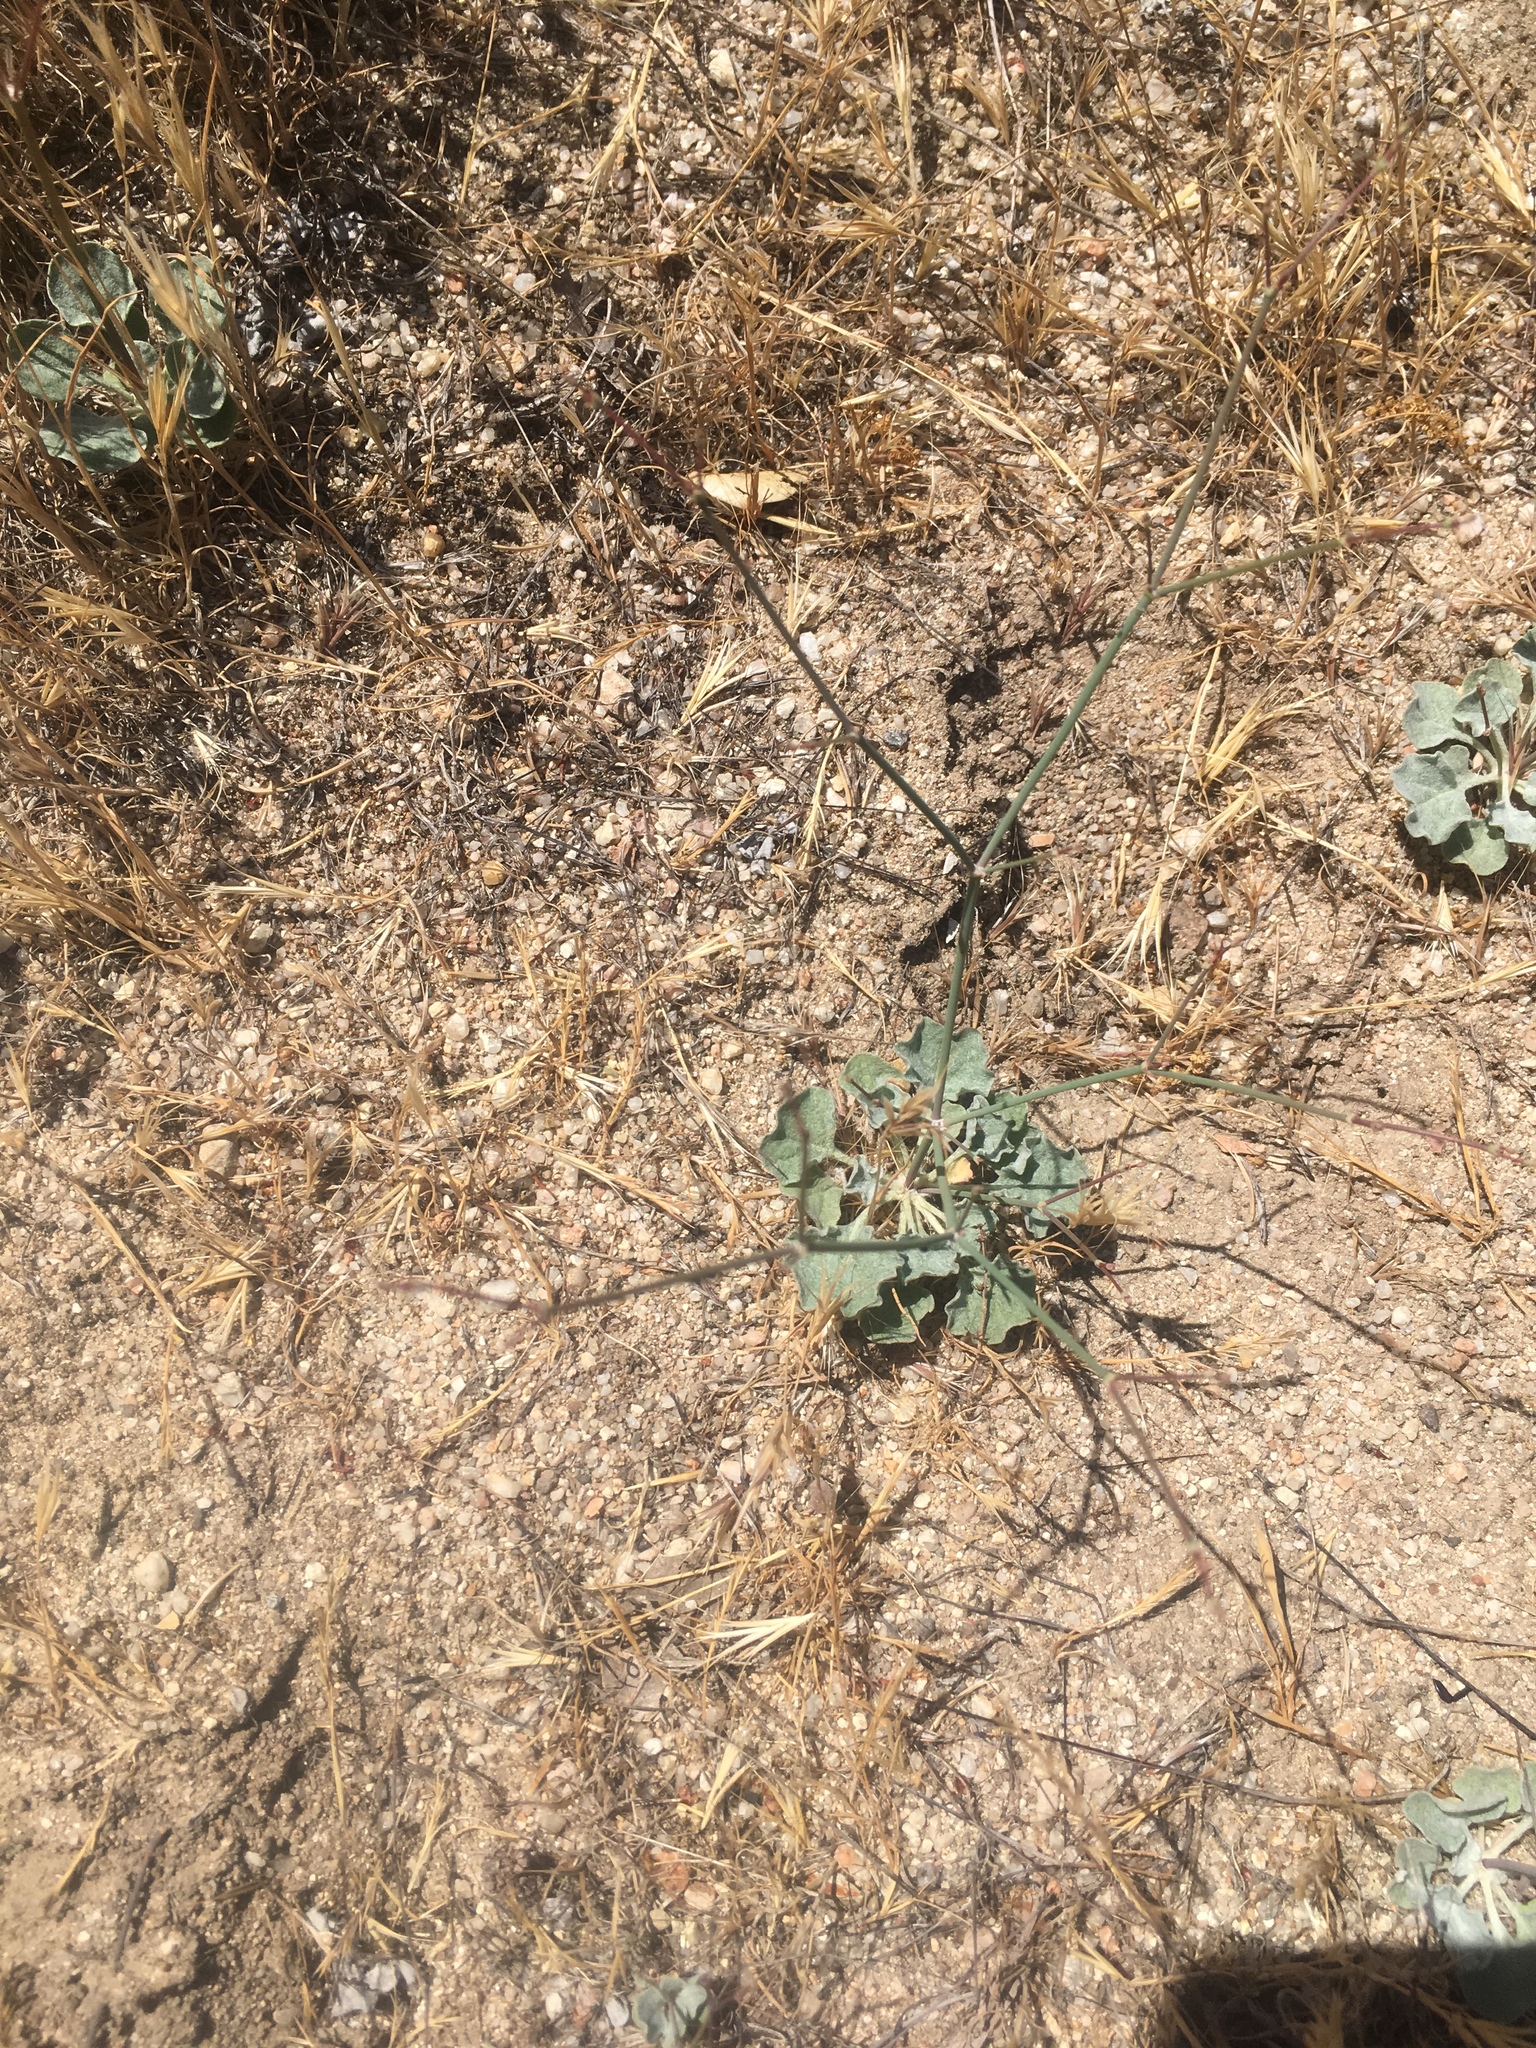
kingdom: Plantae
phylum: Tracheophyta
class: Magnoliopsida
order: Caryophyllales
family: Polygonaceae
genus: Eriogonum
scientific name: Eriogonum elegans
